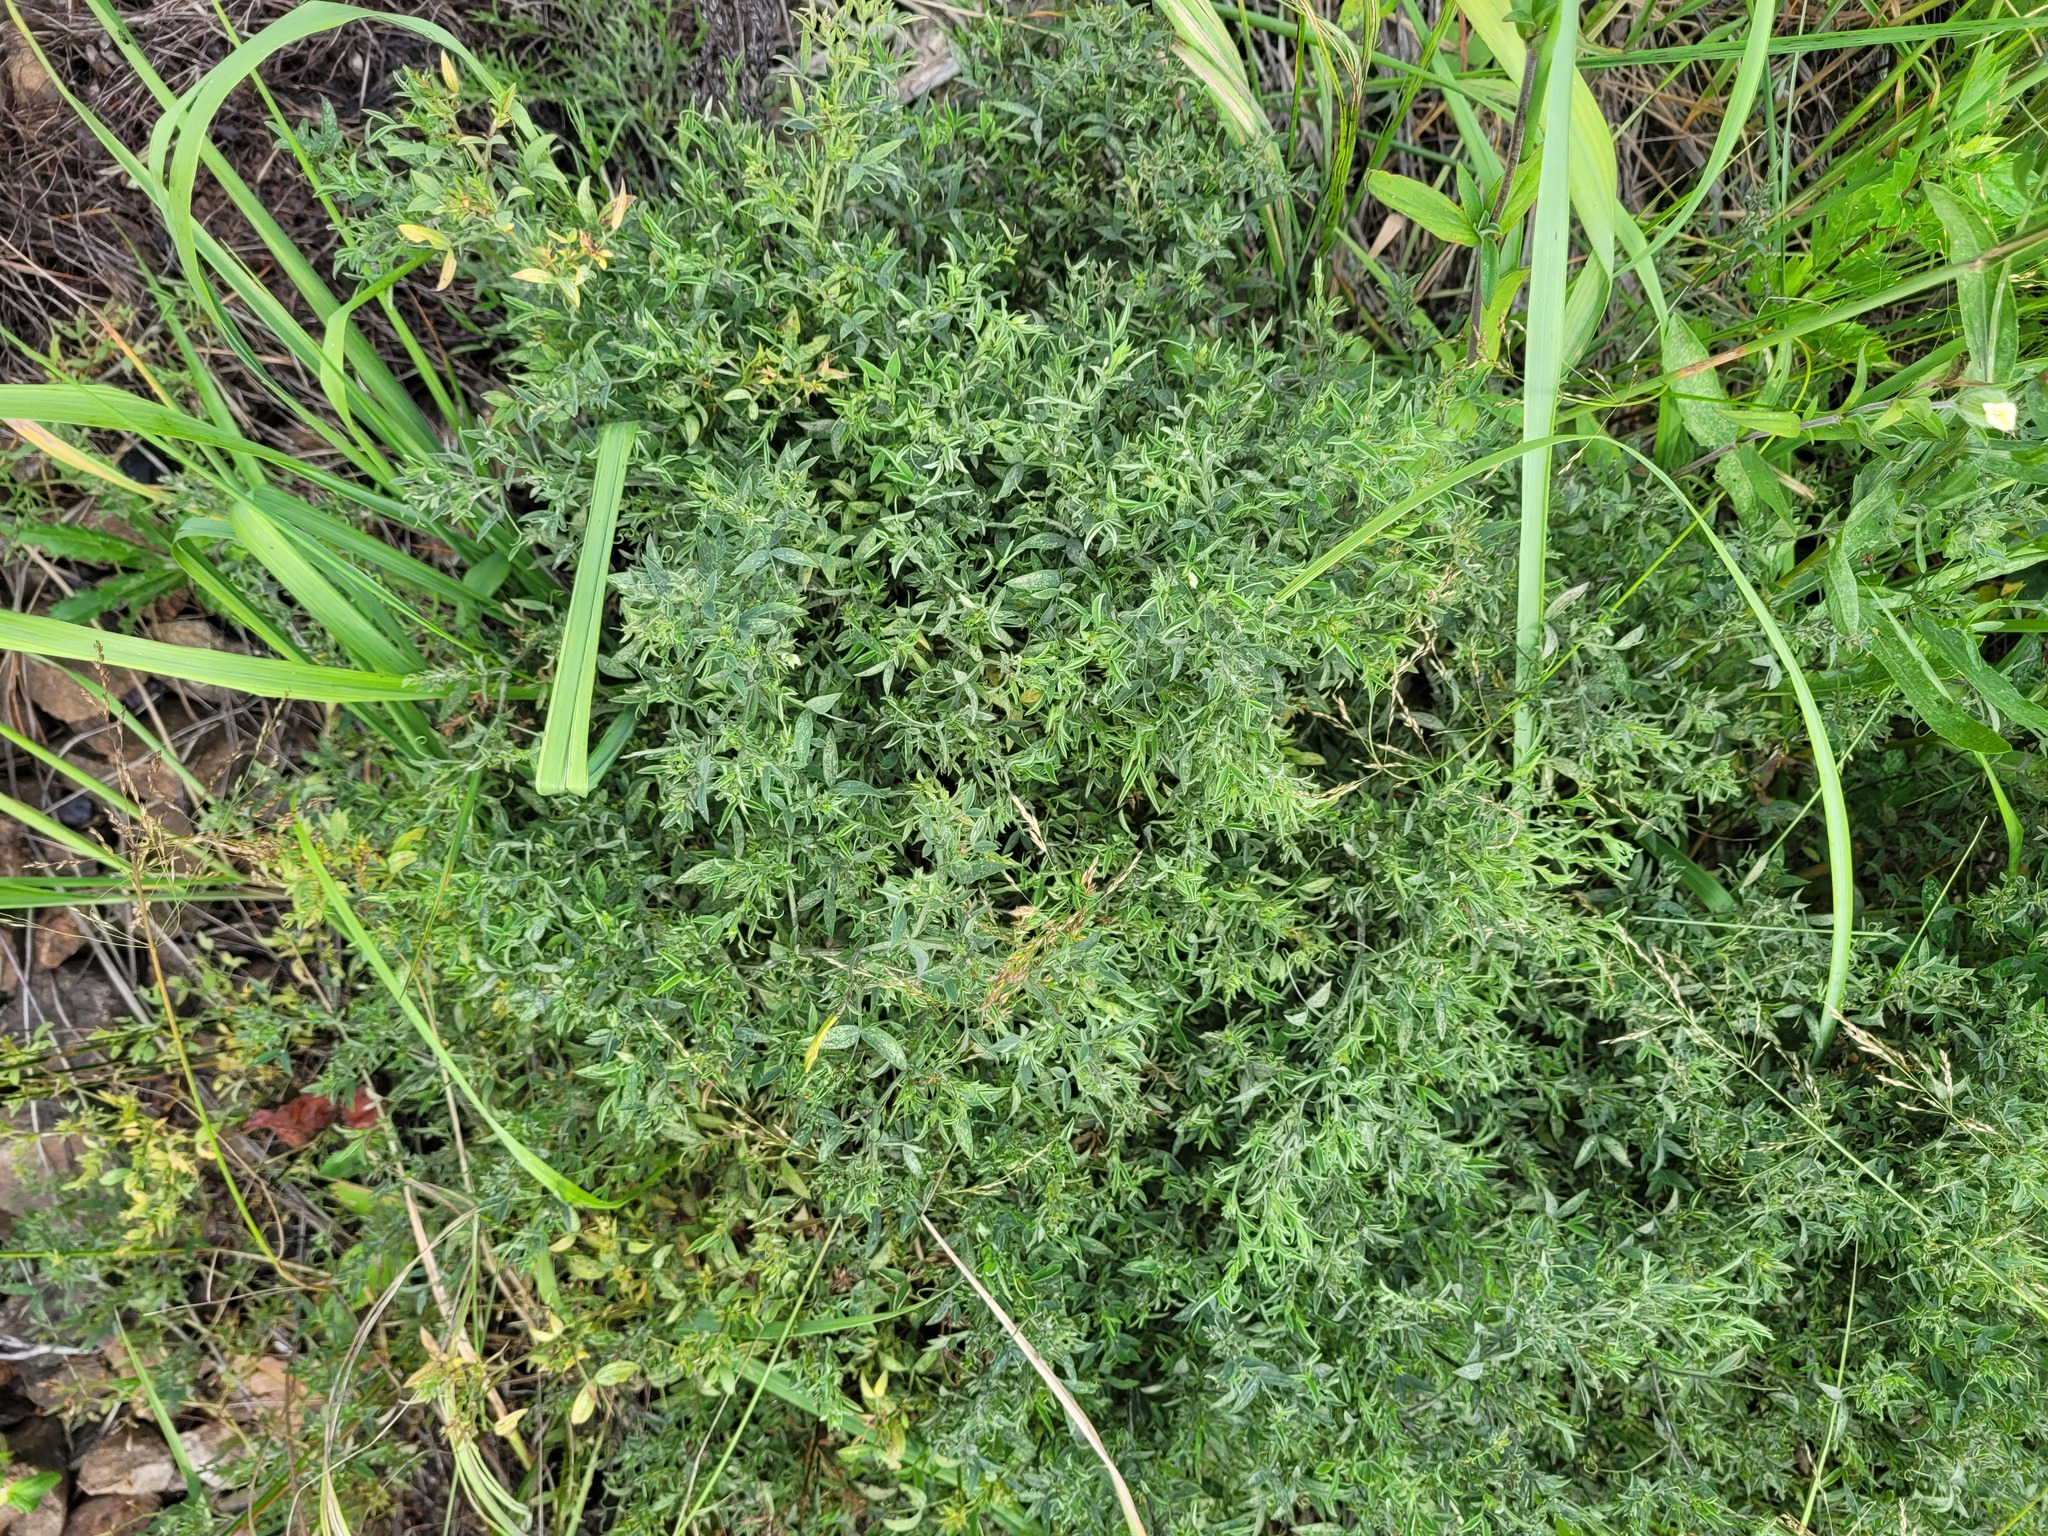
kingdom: Plantae
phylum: Tracheophyta
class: Magnoliopsida
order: Fabales
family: Fabaceae
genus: Lathyrus
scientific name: Lathyrus pratensis
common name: Meadow vetchling
